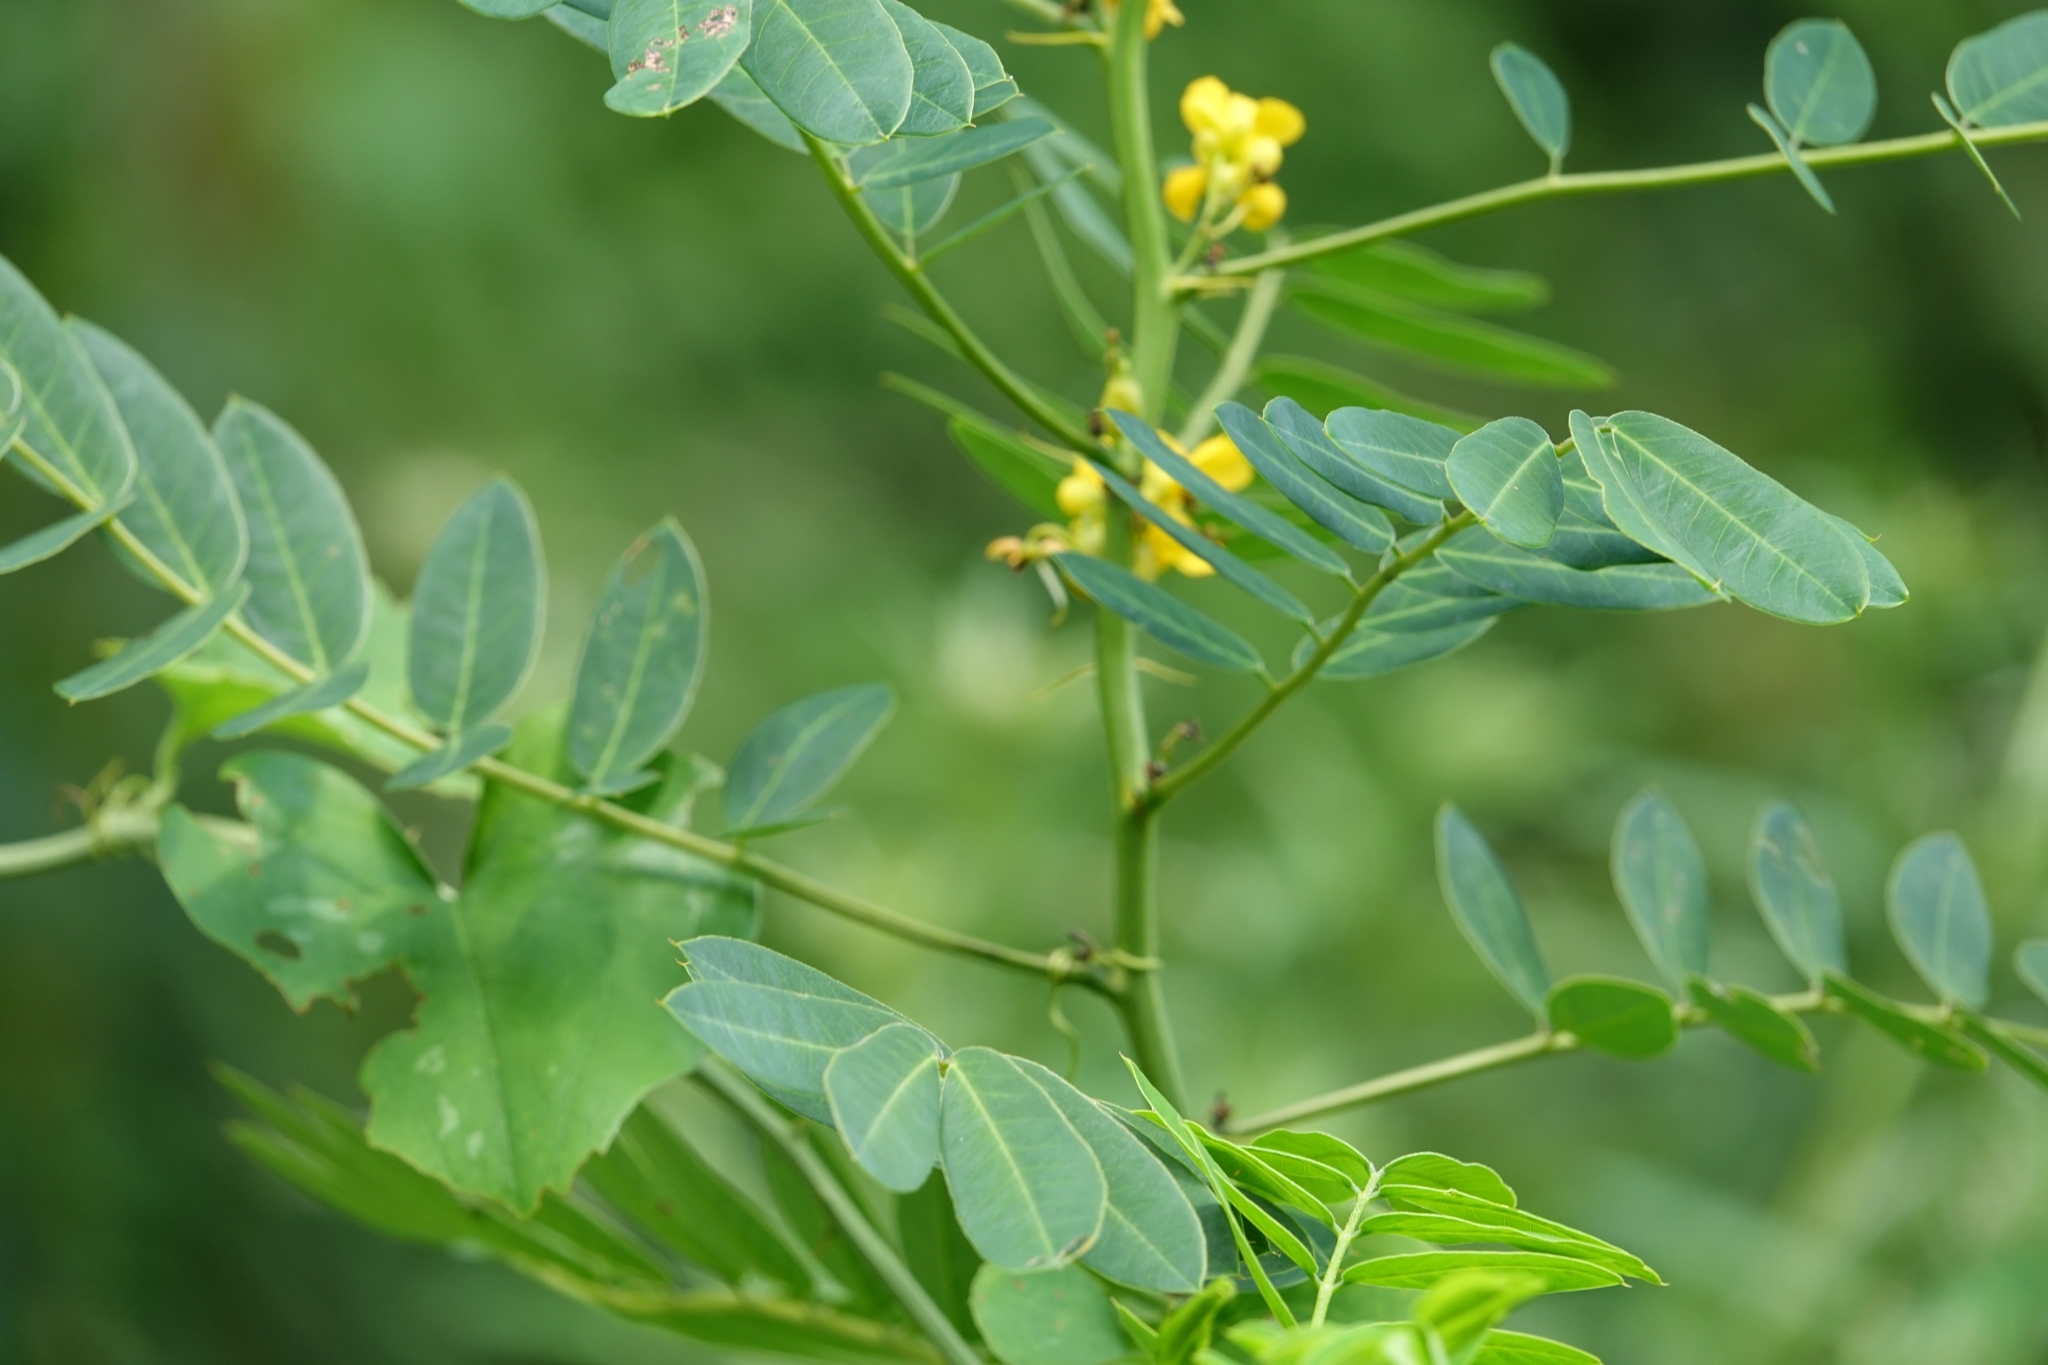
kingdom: Plantae
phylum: Tracheophyta
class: Magnoliopsida
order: Fabales
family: Fabaceae
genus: Senna
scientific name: Senna marilandica
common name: American senna
